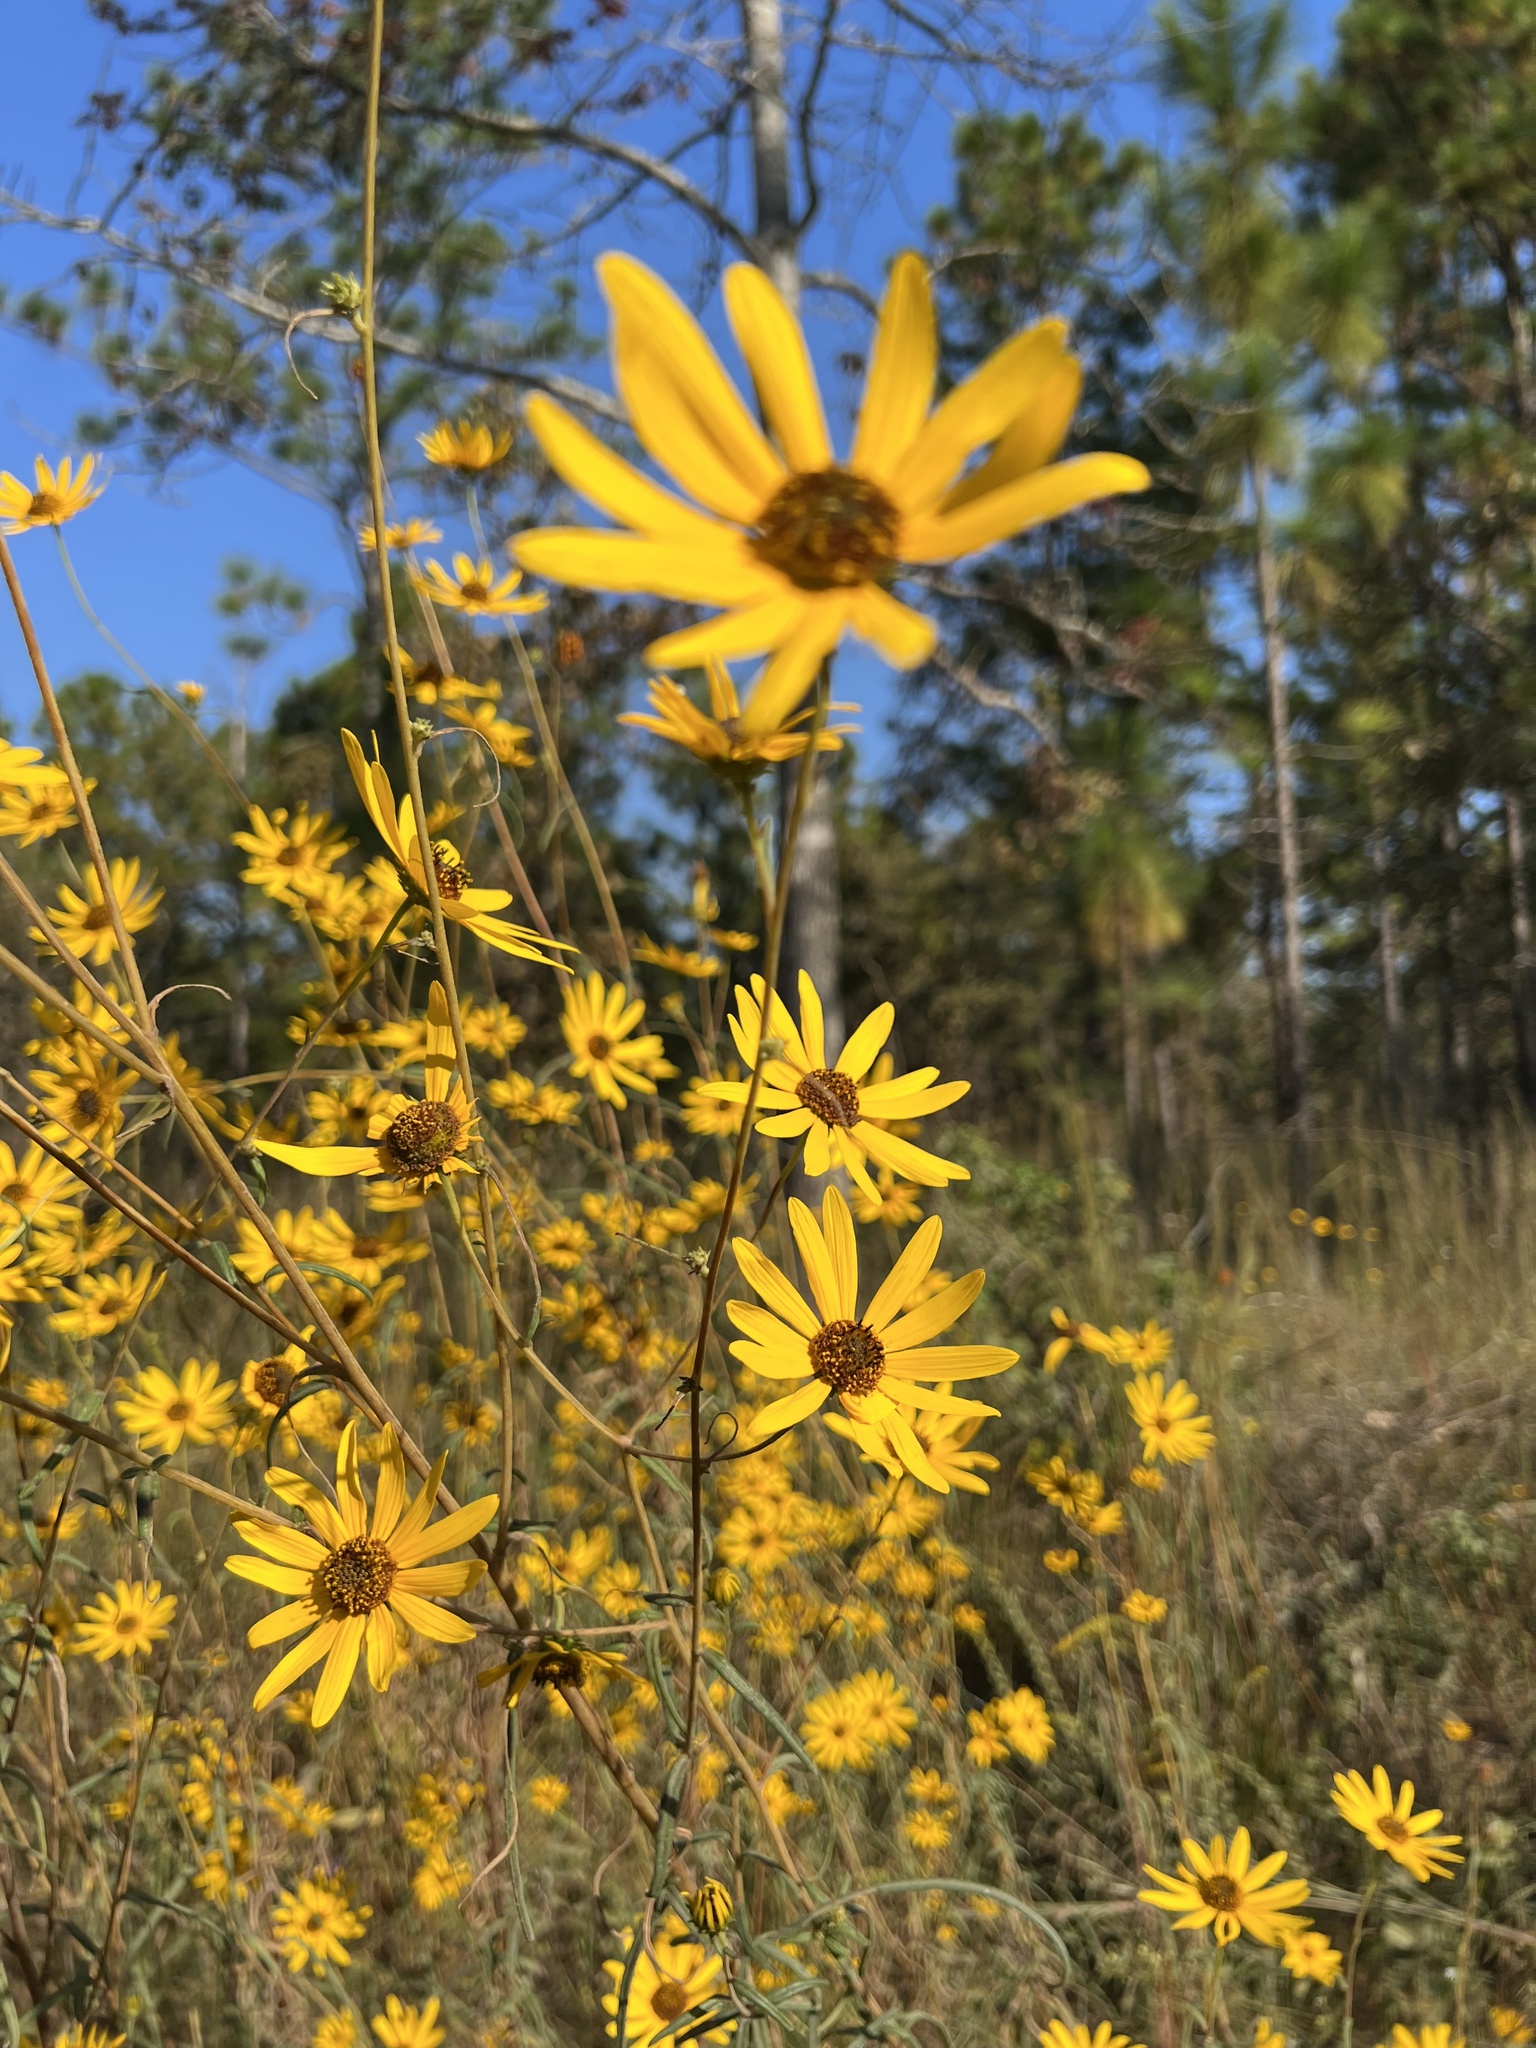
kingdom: Plantae
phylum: Tracheophyta
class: Magnoliopsida
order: Asterales
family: Asteraceae
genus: Helianthus
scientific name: Helianthus angustifolius
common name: Swamp sunflower
